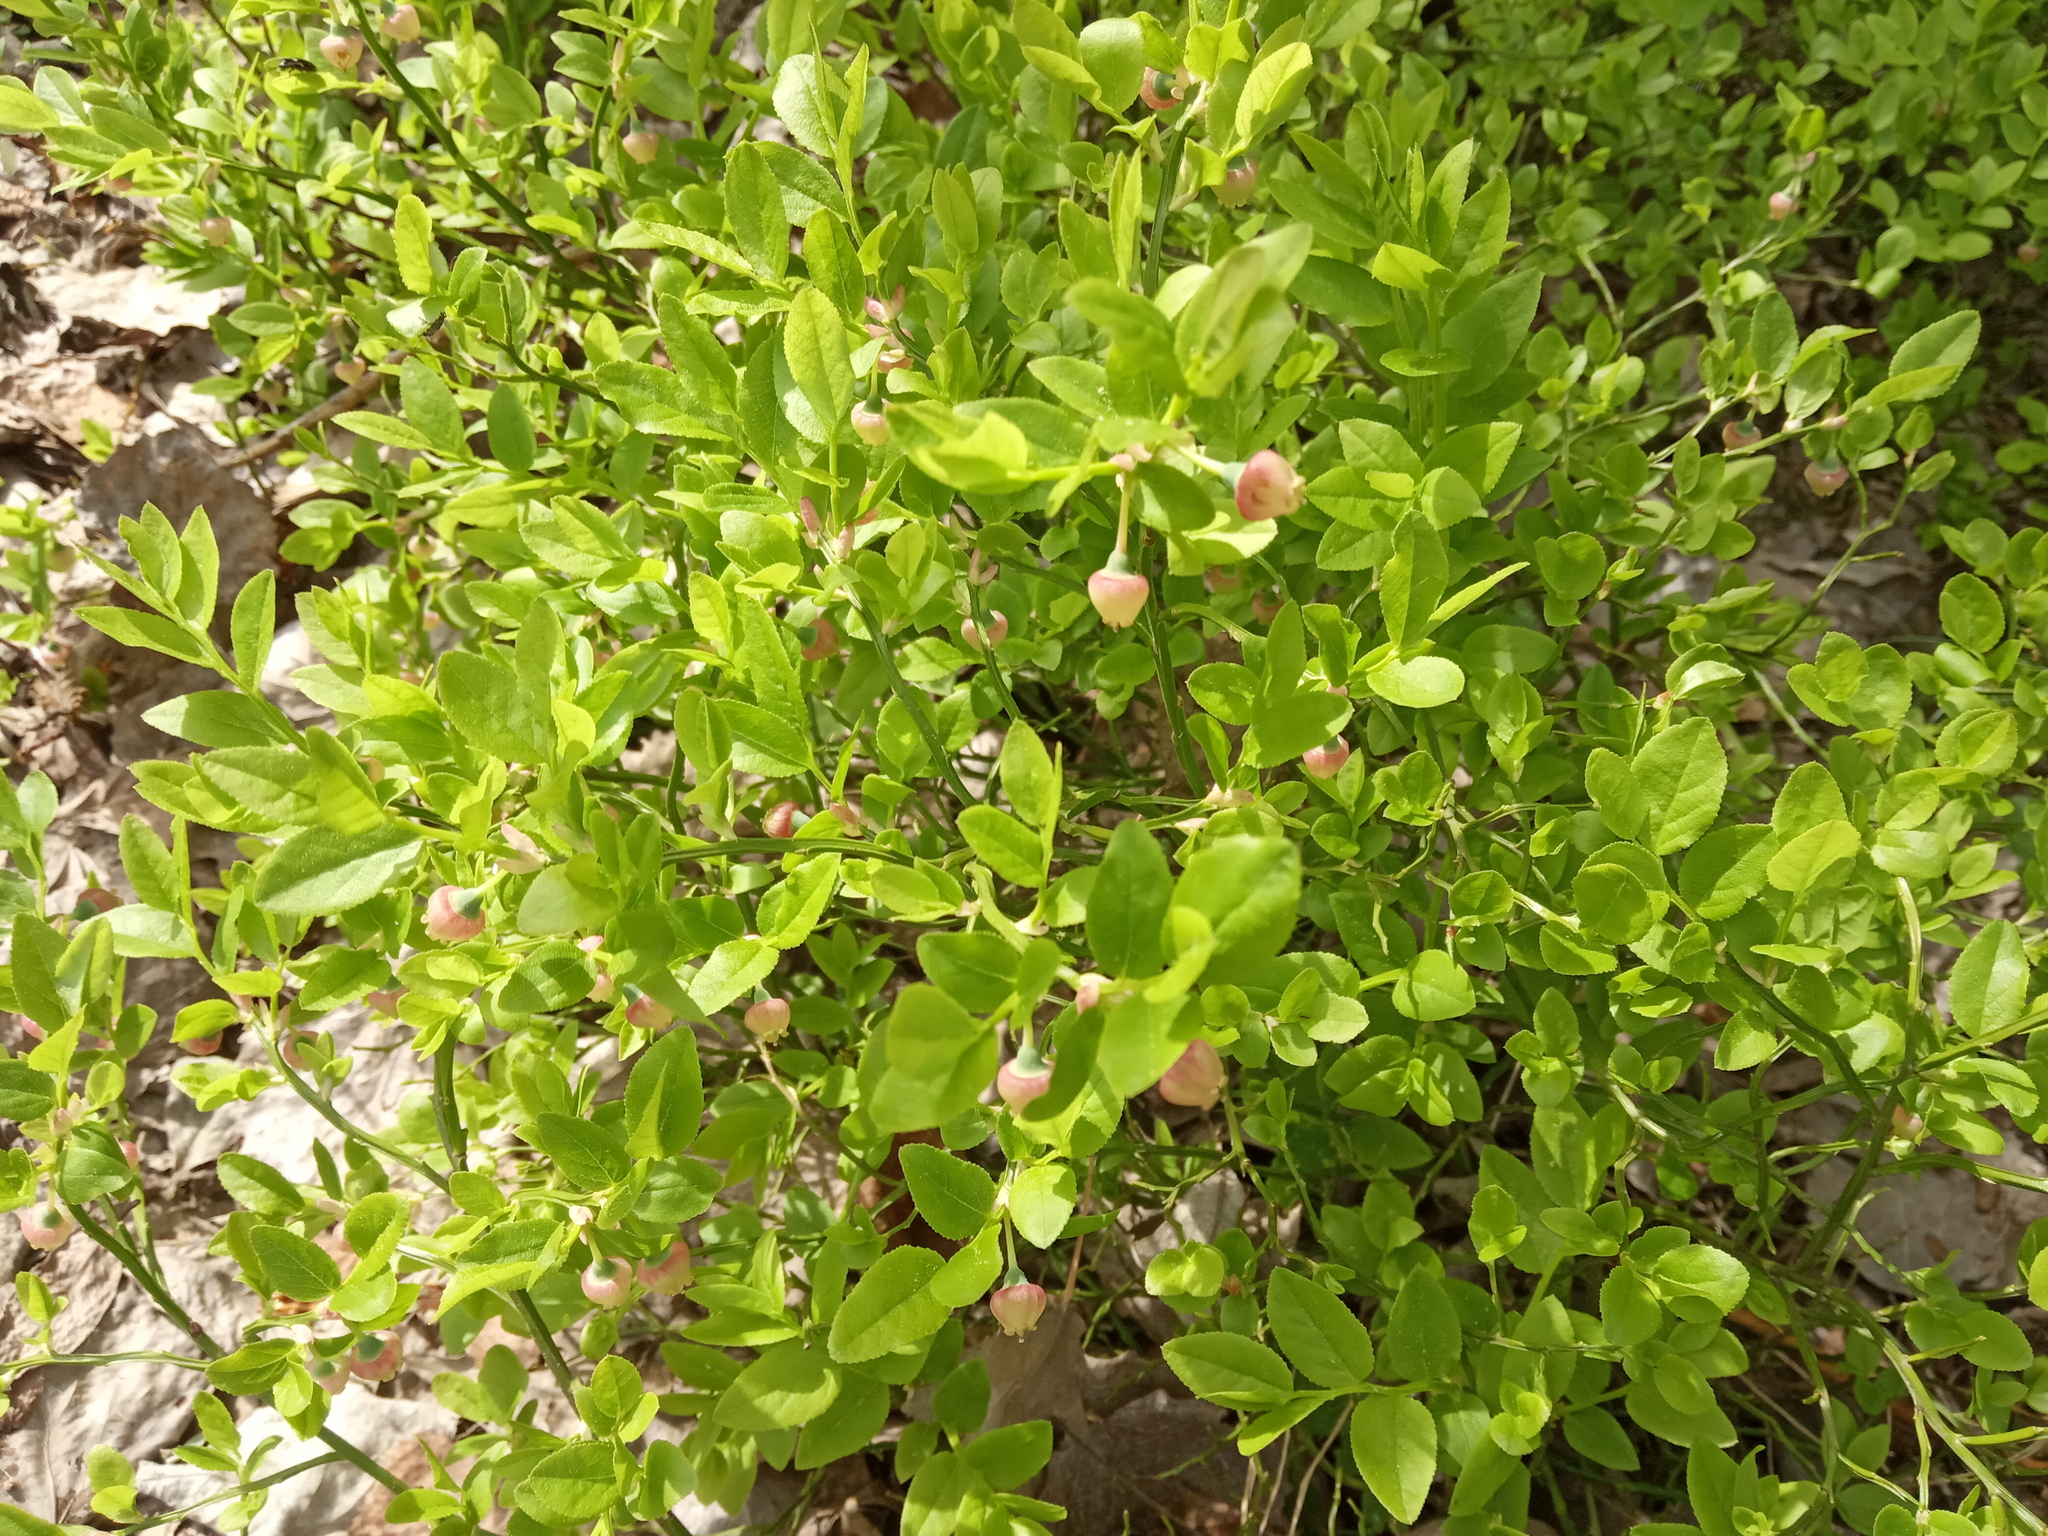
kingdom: Plantae
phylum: Tracheophyta
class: Magnoliopsida
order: Ericales
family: Ericaceae
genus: Vaccinium
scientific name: Vaccinium myrtillus
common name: Bilberry
